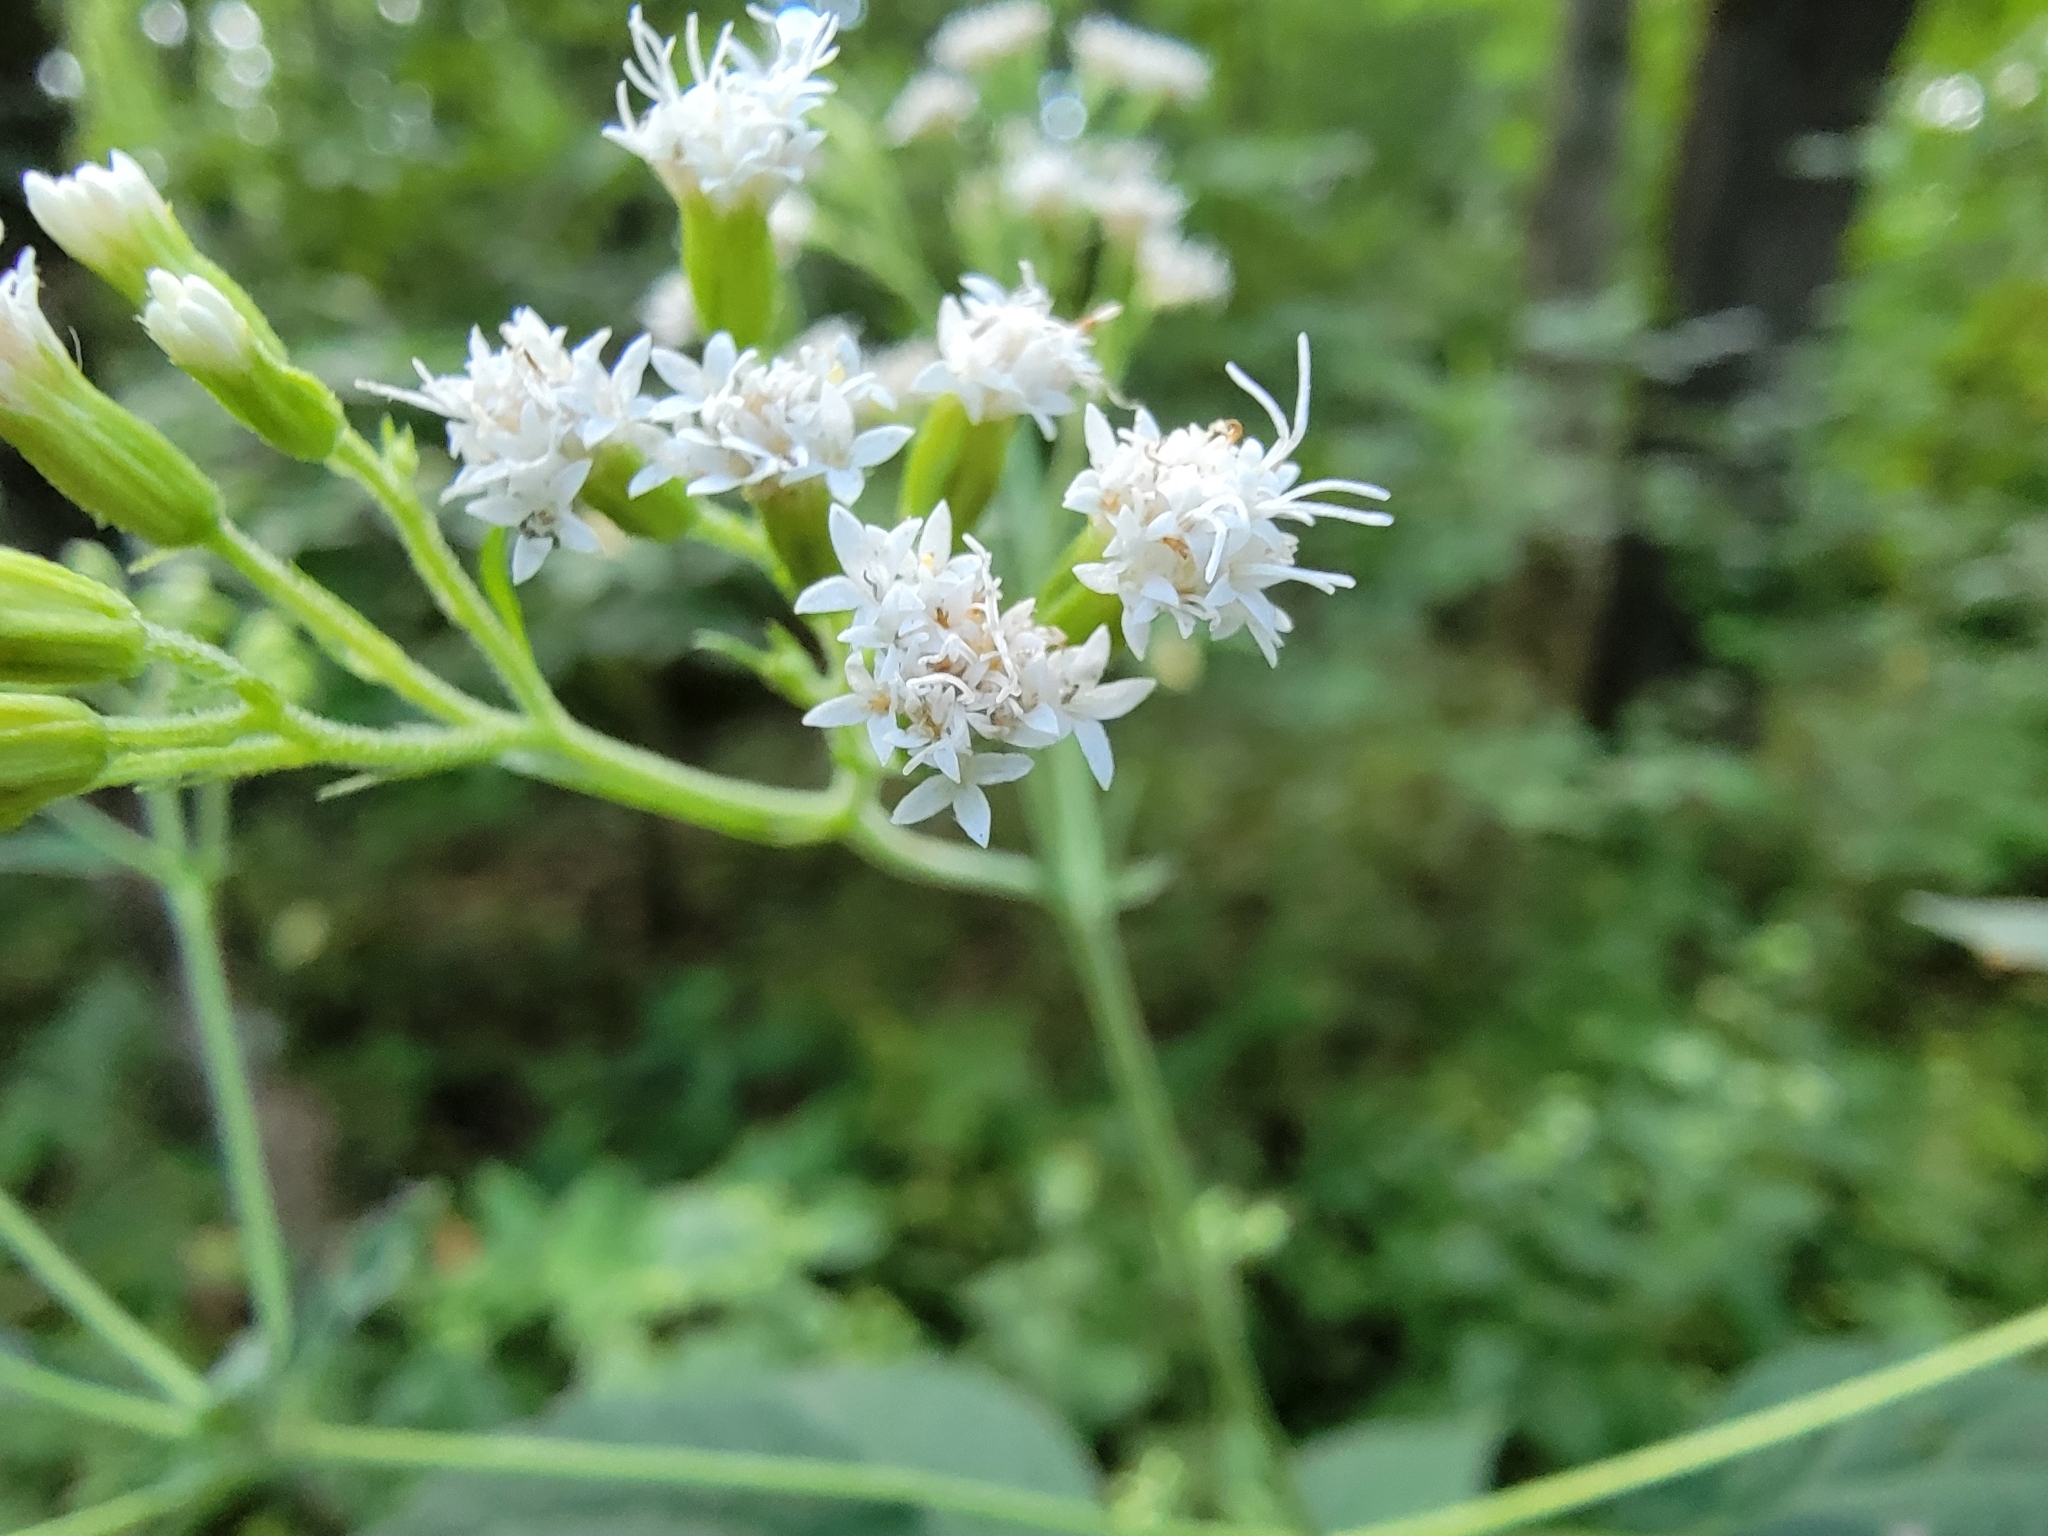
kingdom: Plantae
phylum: Tracheophyta
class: Magnoliopsida
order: Asterales
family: Asteraceae
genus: Ageratina
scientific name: Ageratina altissima
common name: White snakeroot
